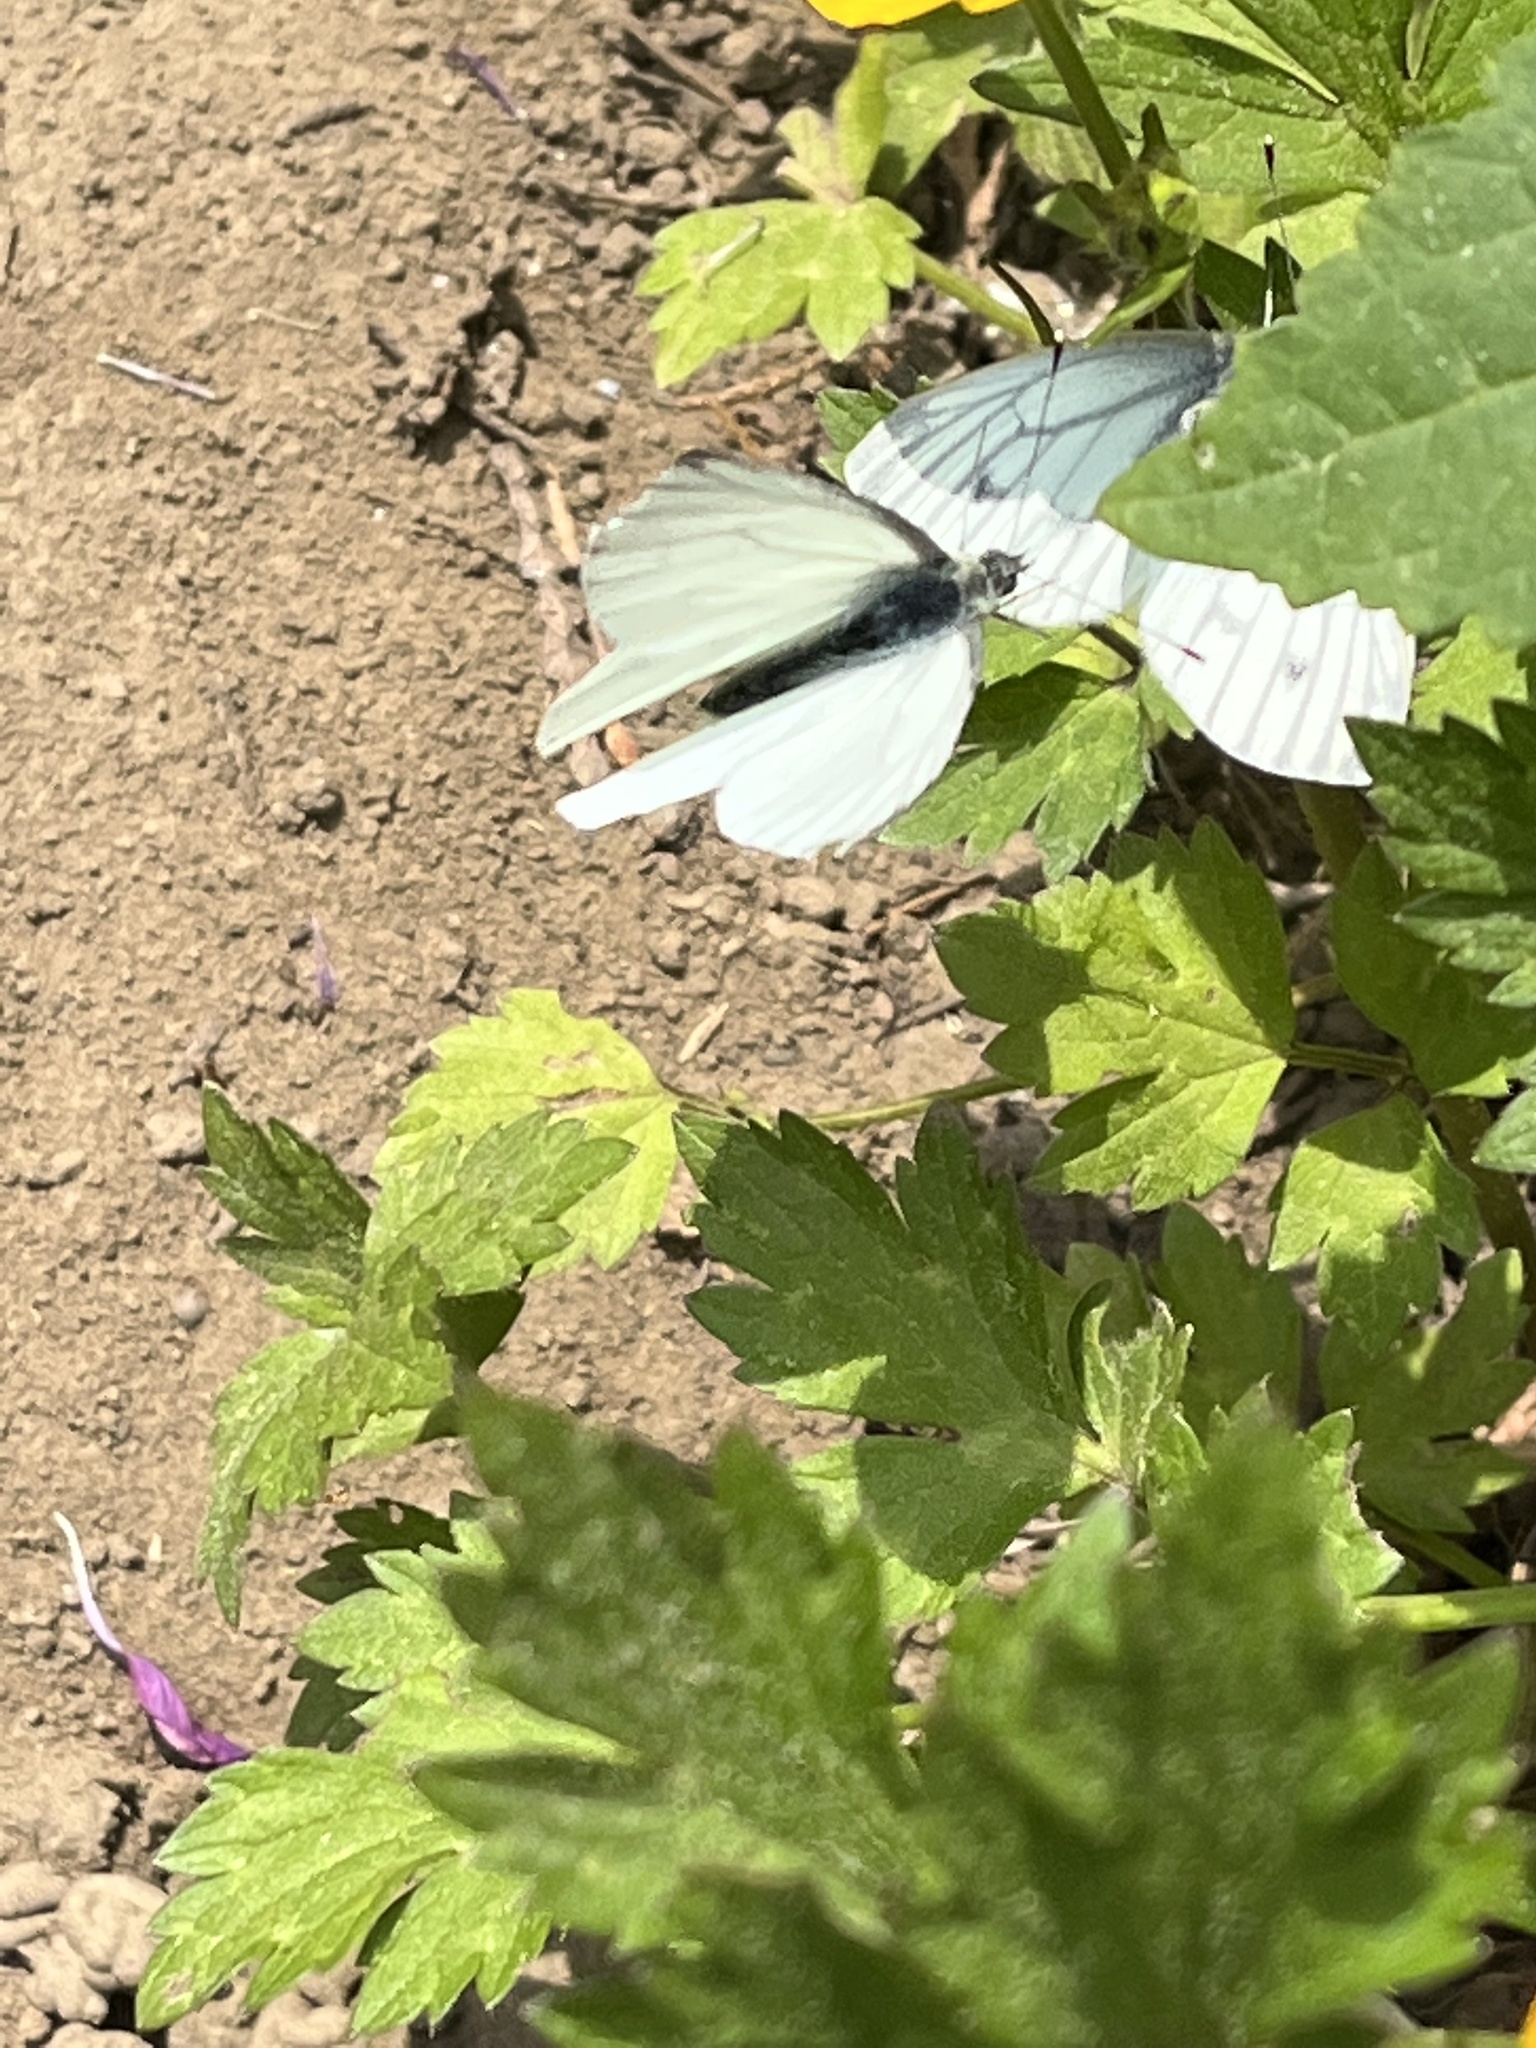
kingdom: Animalia
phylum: Arthropoda
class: Insecta
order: Lepidoptera
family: Pieridae
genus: Pieris
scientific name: Pieris napi
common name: Green-veined white
